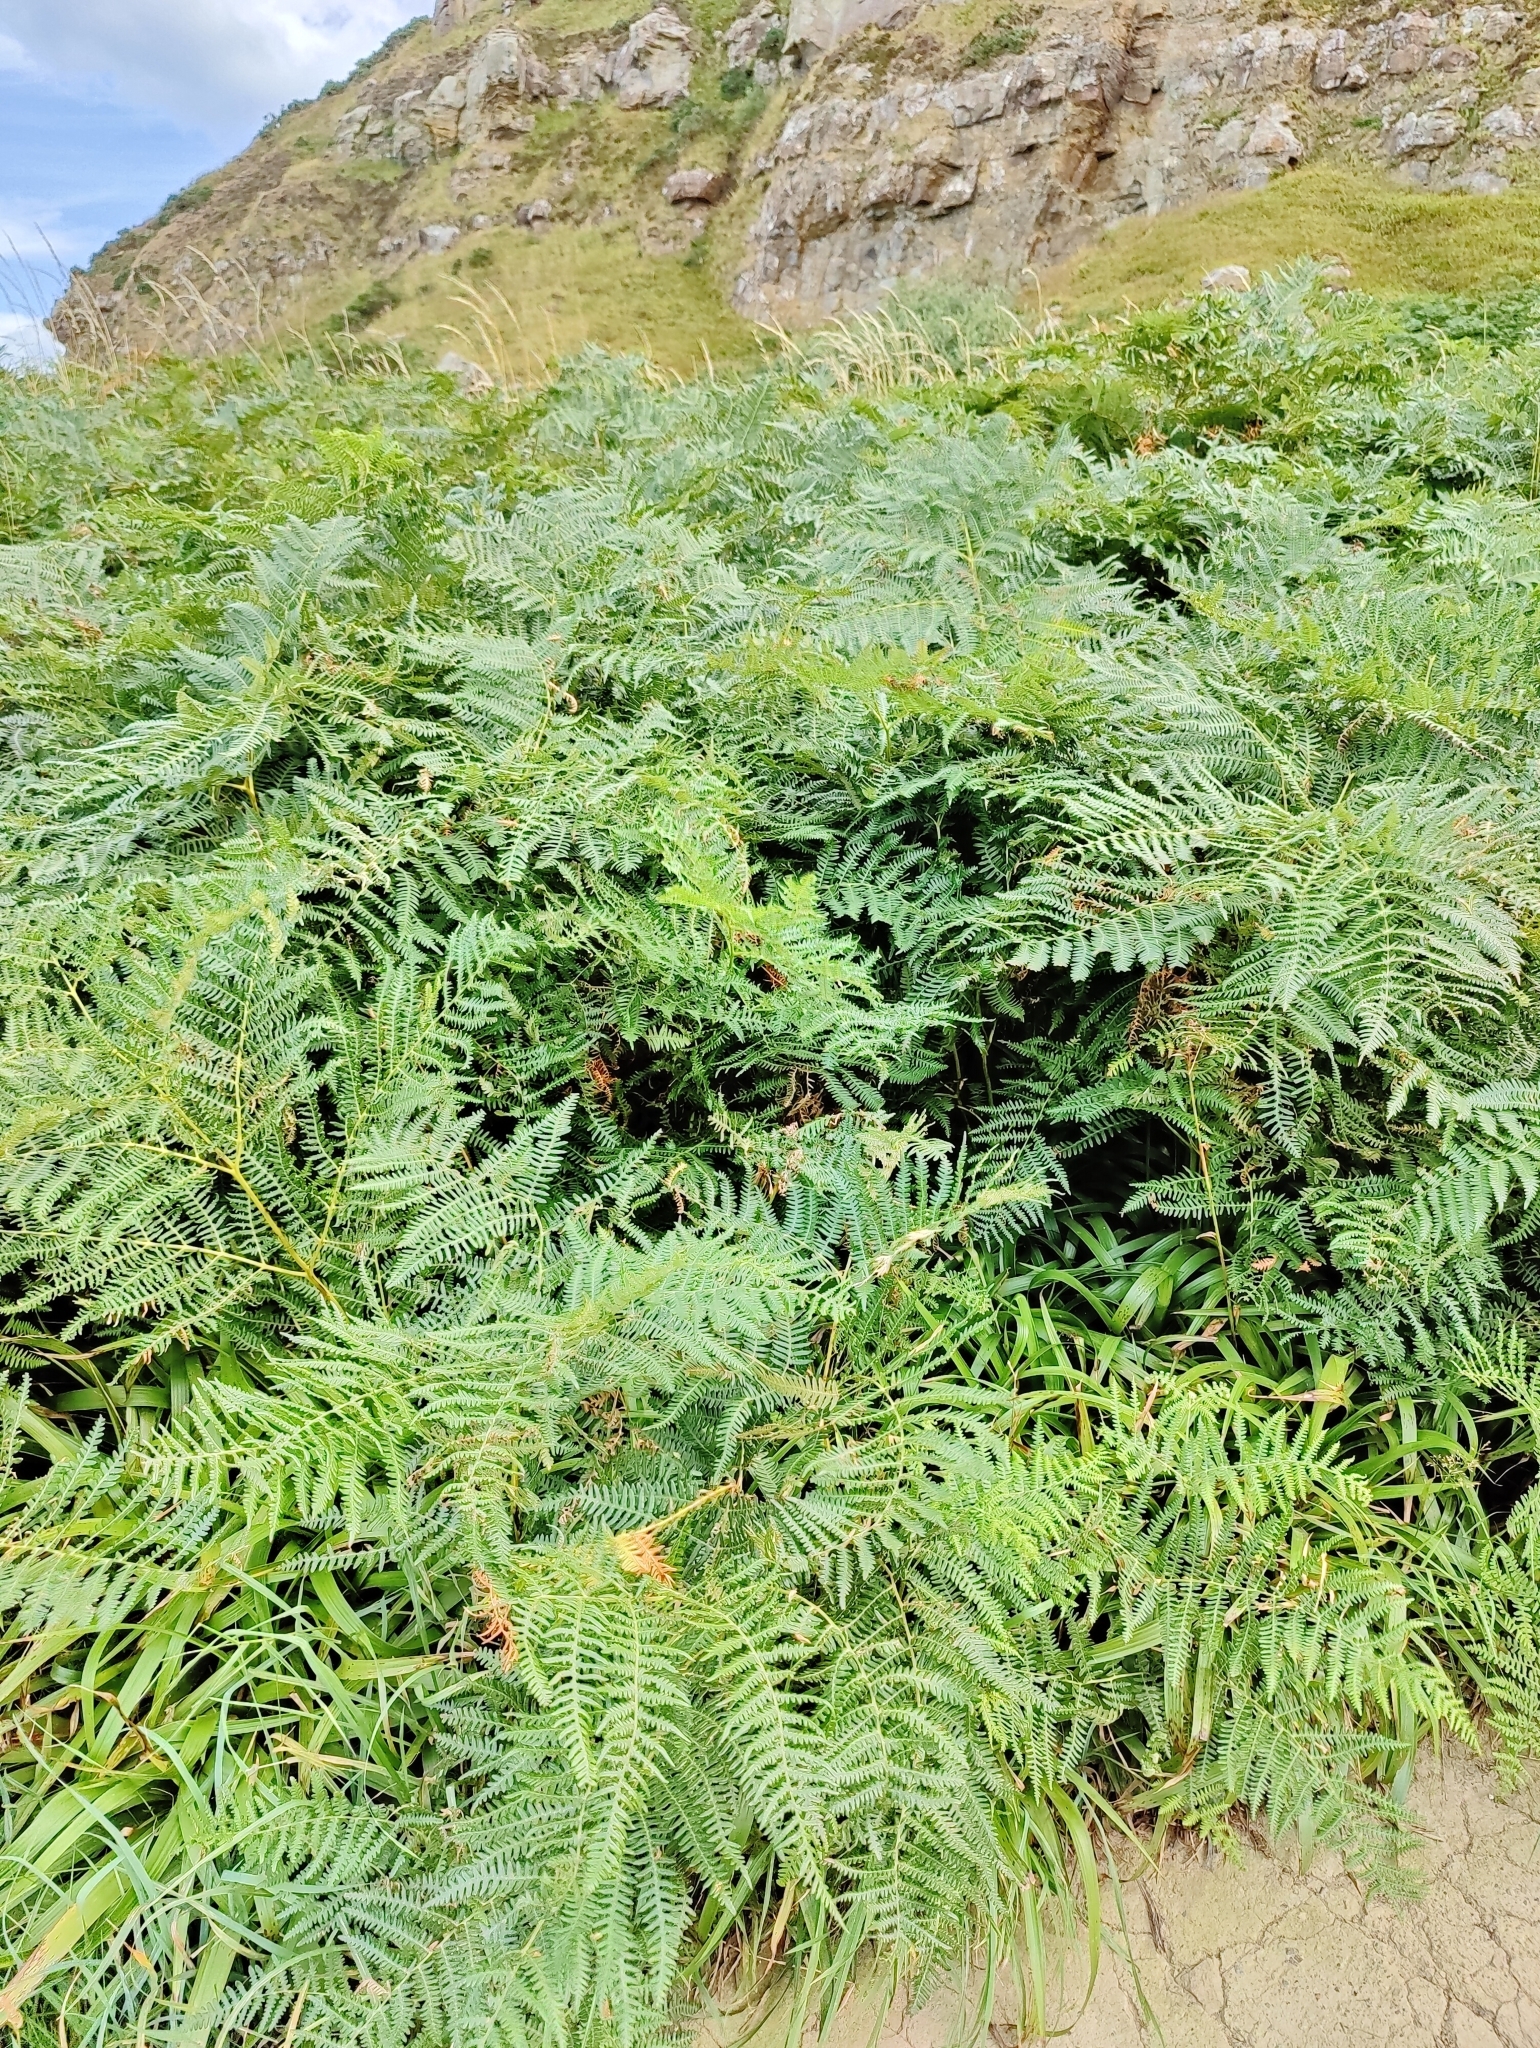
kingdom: Plantae
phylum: Tracheophyta
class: Polypodiopsida
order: Polypodiales
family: Dennstaedtiaceae
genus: Pteridium
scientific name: Pteridium aquilinum
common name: Bracken
